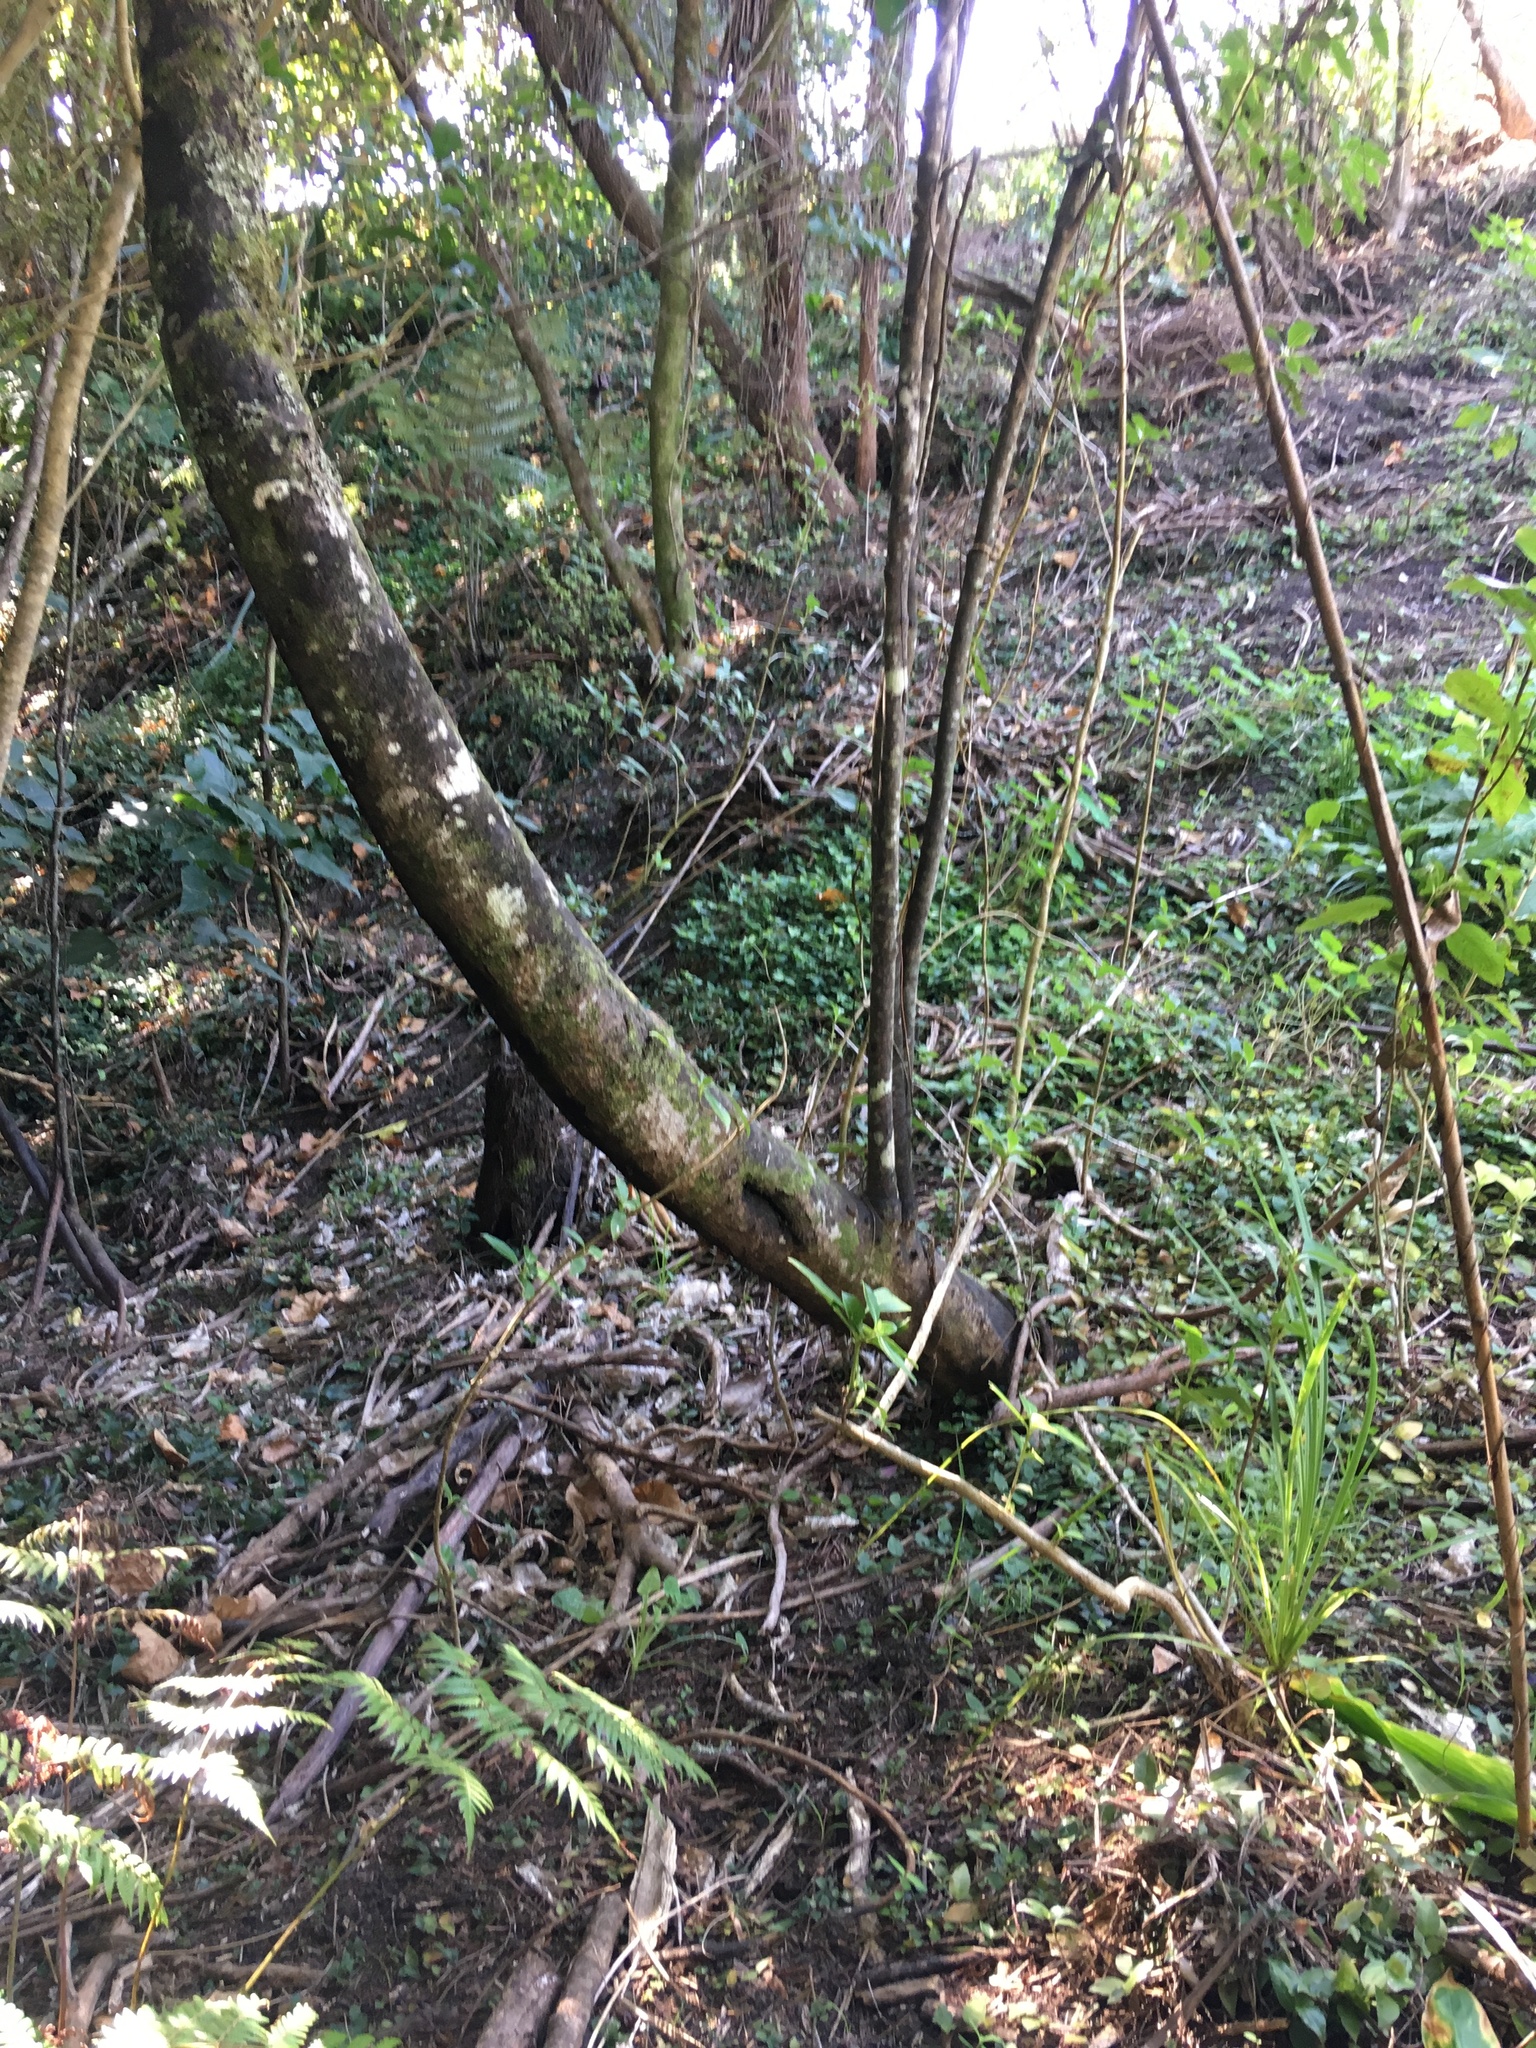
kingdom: Plantae
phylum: Tracheophyta
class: Liliopsida
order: Commelinales
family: Commelinaceae
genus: Tradescantia
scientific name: Tradescantia fluminensis
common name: Wandering-jew
